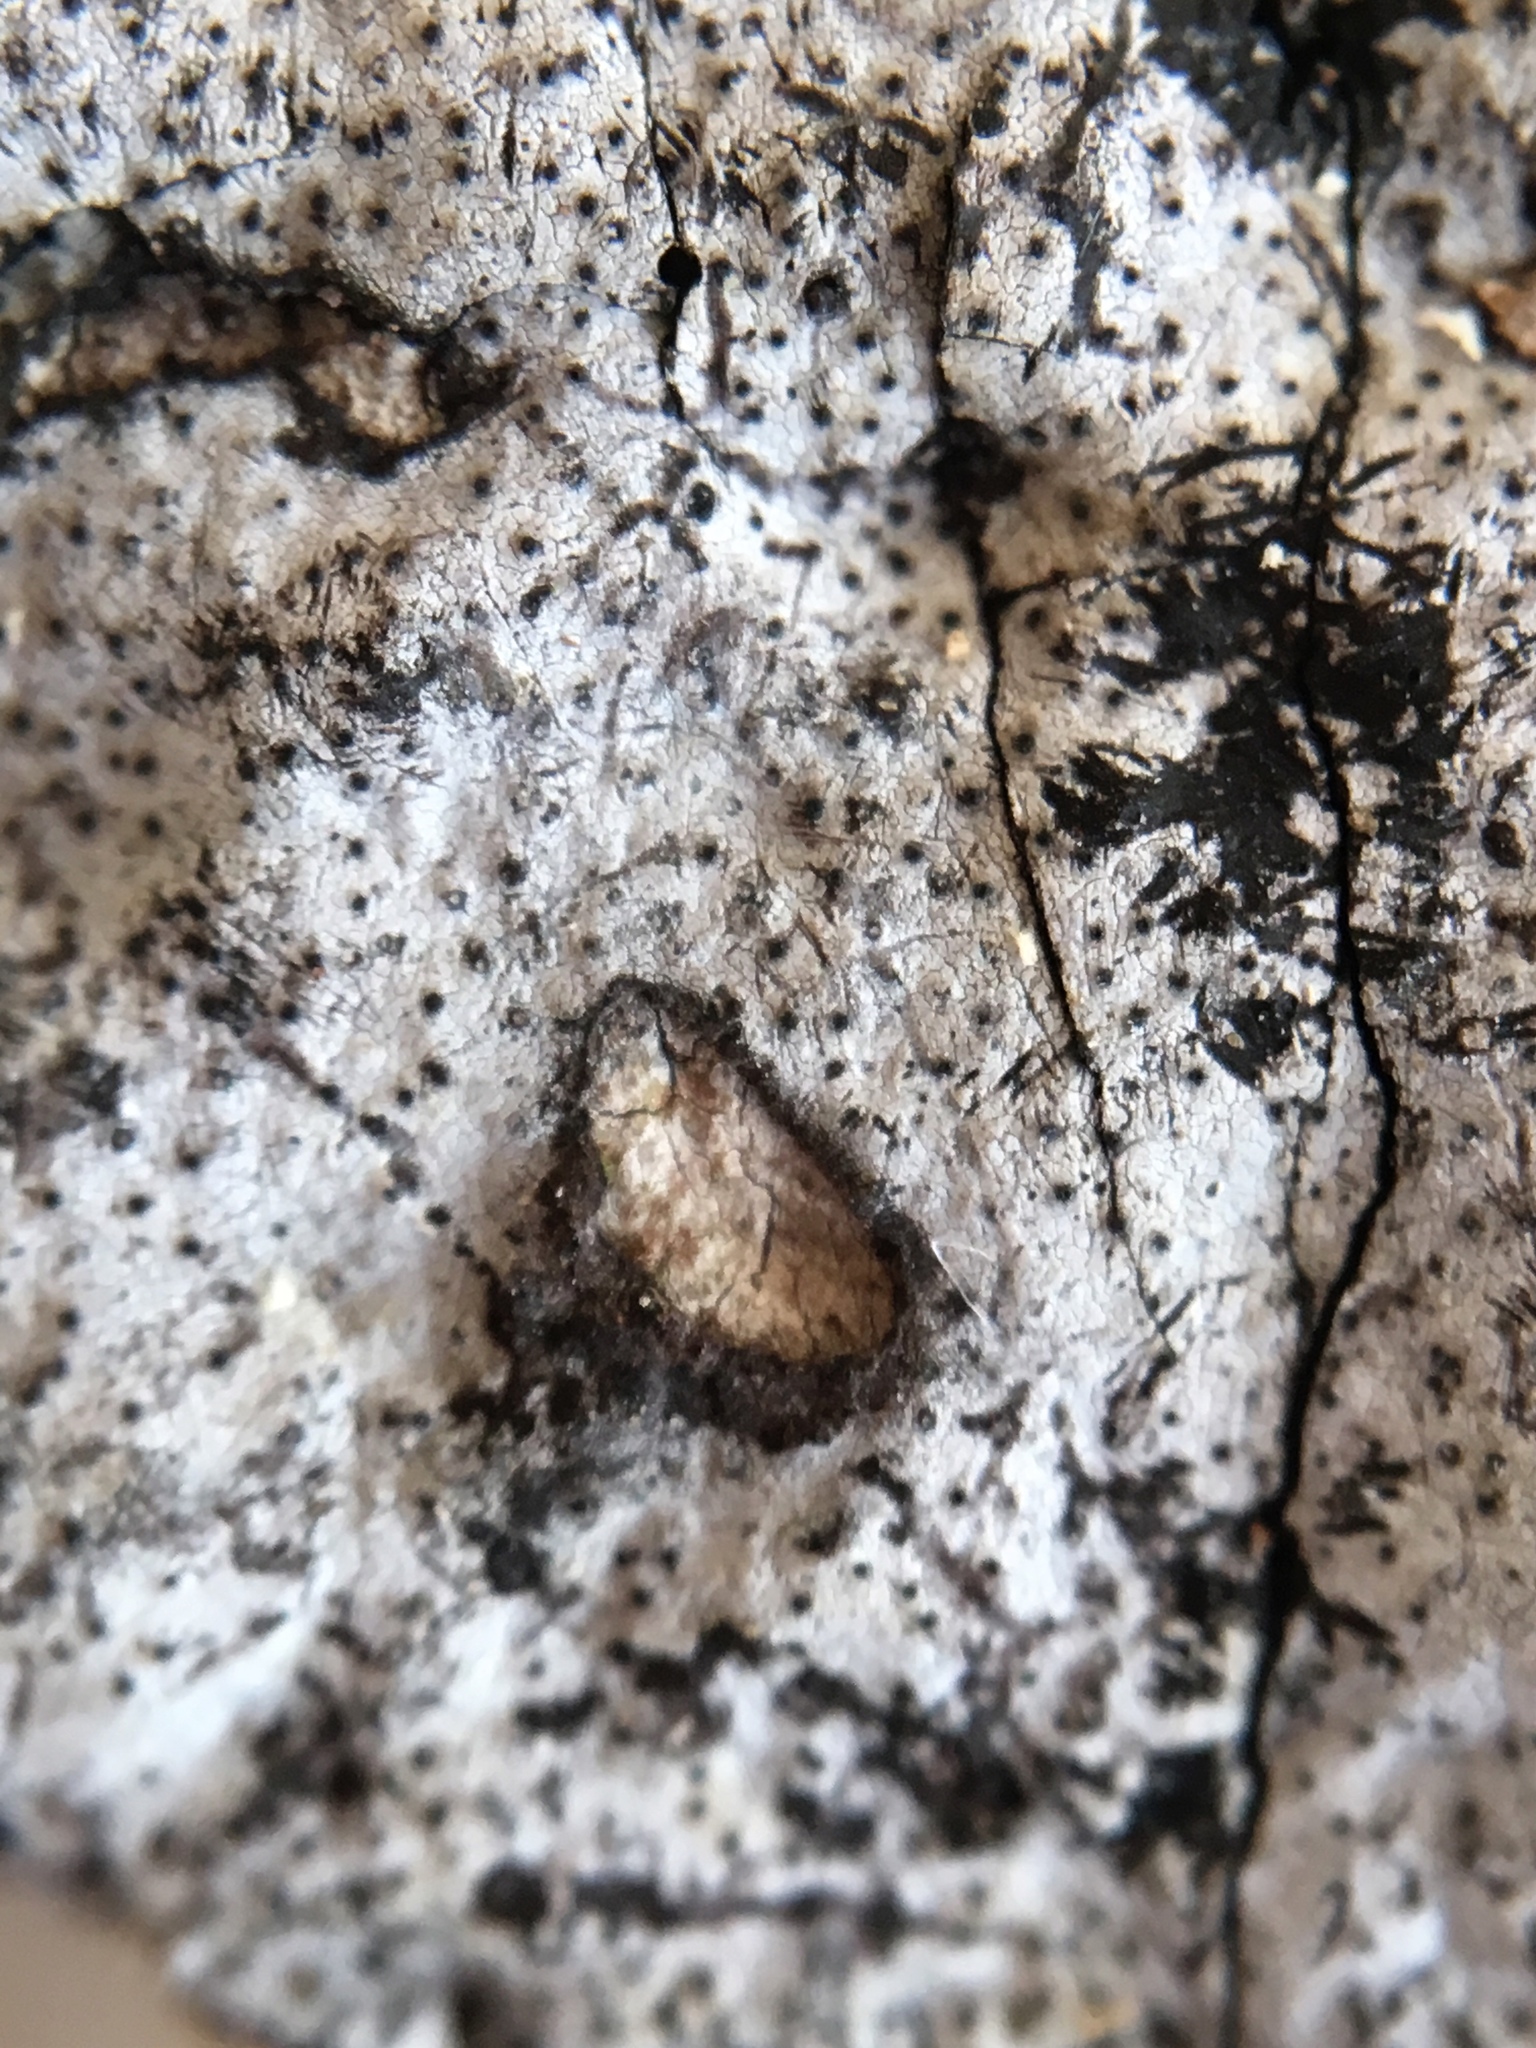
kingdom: Fungi
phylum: Ascomycota
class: Sordariomycetes
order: Xylariales
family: Graphostromataceae
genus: Biscogniauxia
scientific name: Biscogniauxia atropunctata
